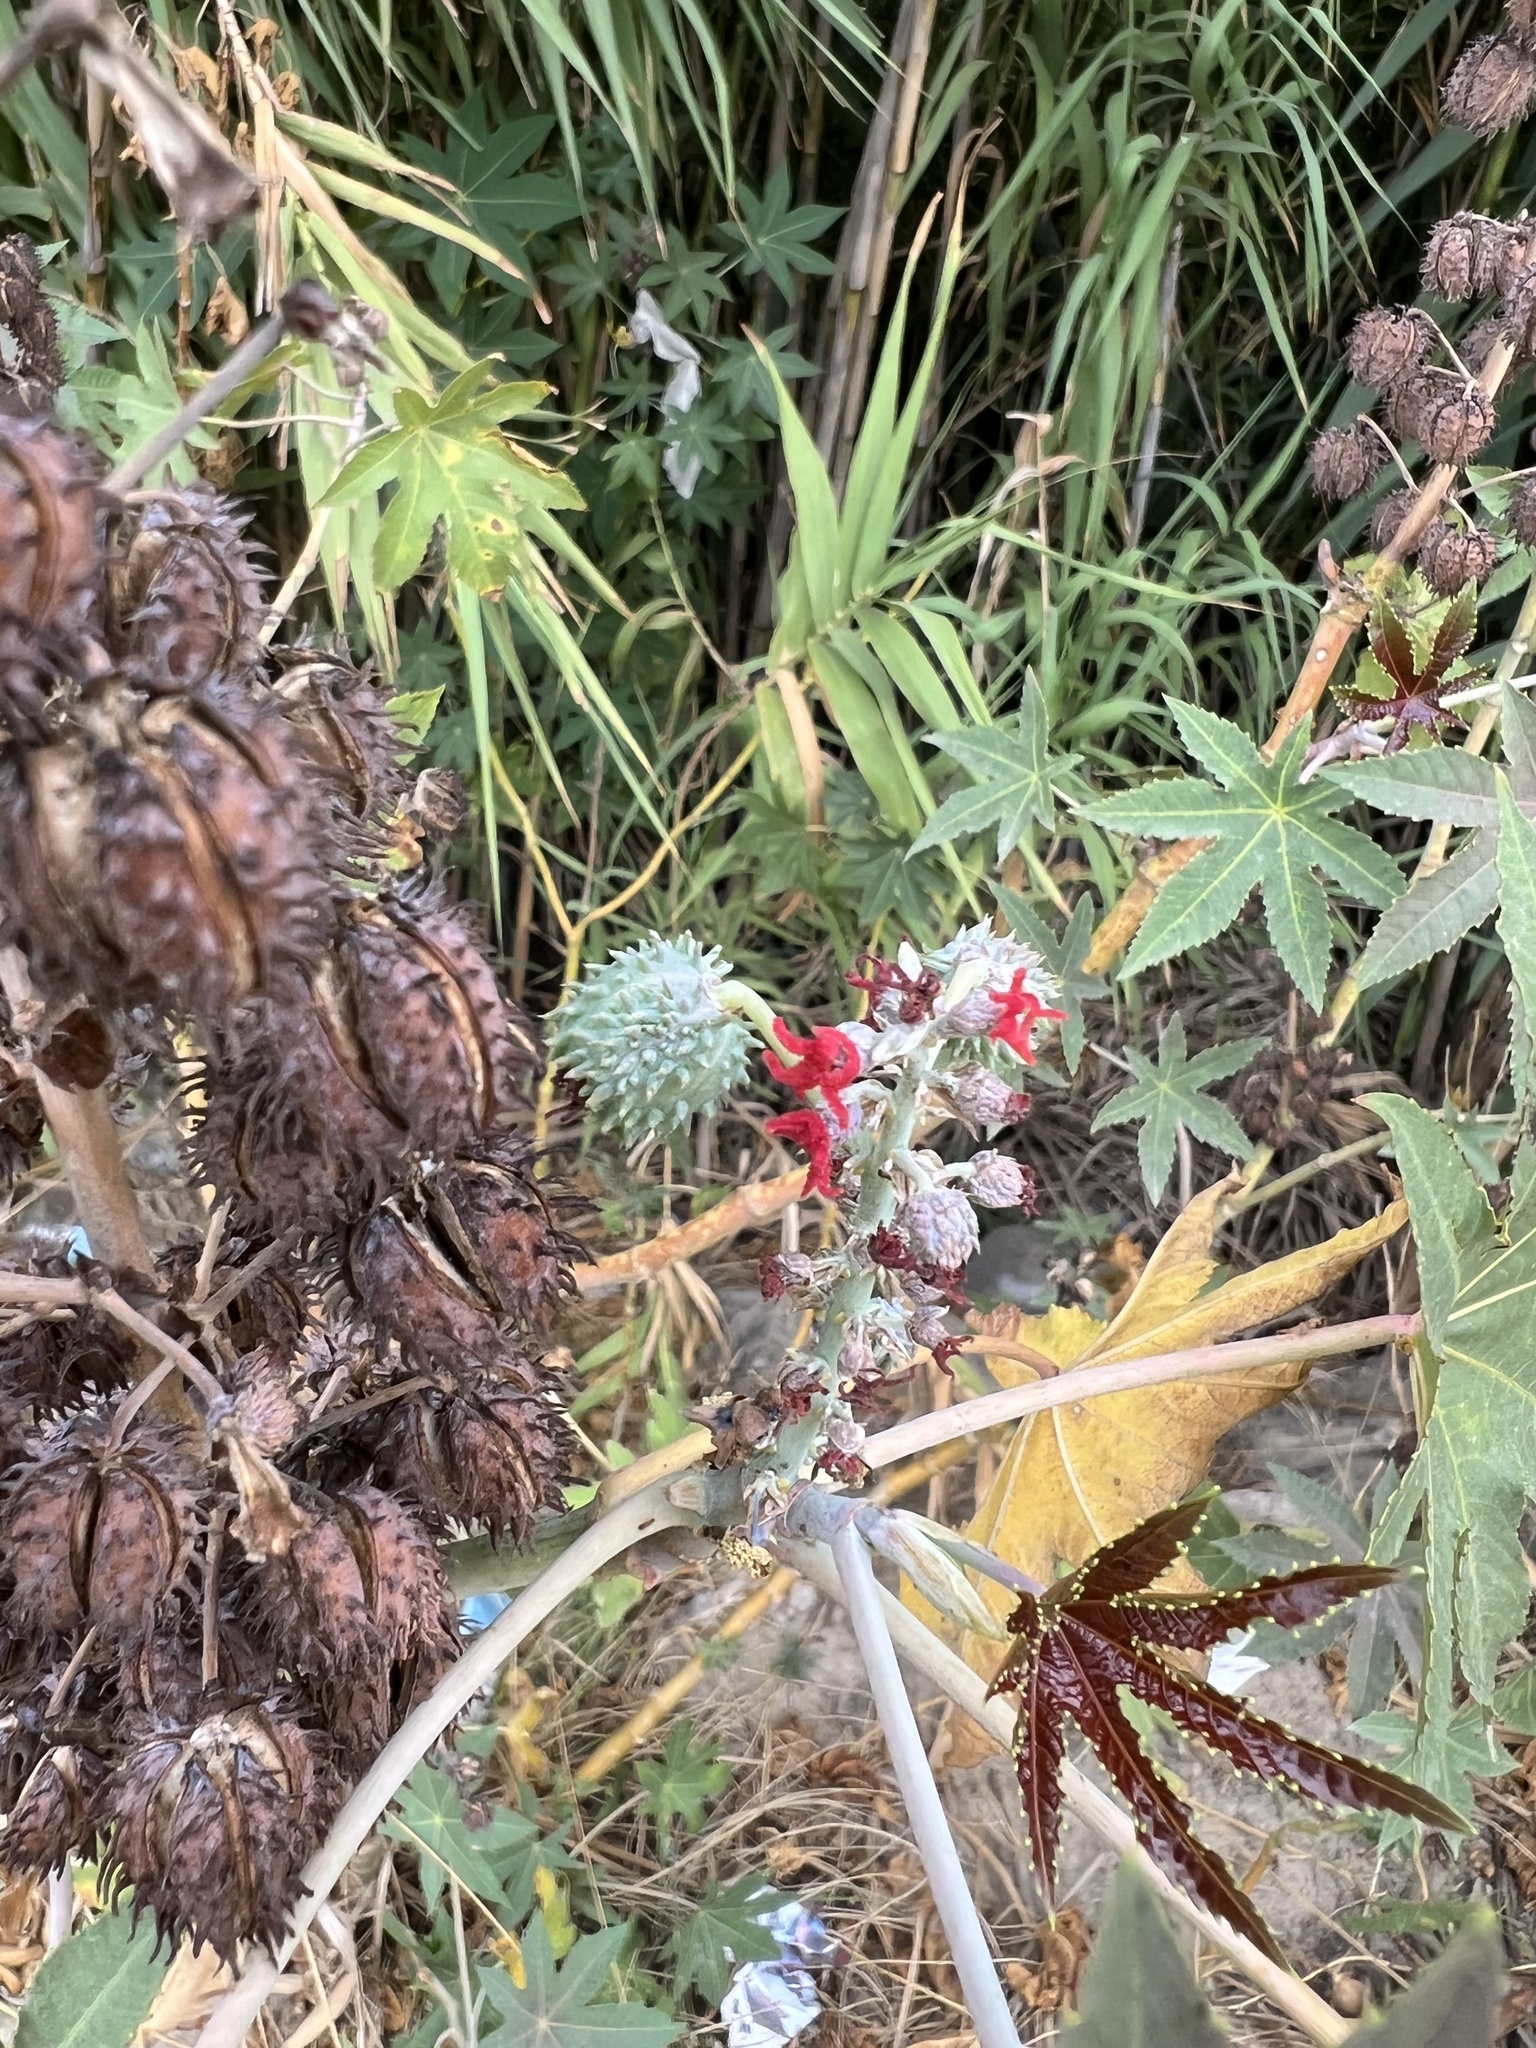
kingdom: Plantae
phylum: Tracheophyta
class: Magnoliopsida
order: Malpighiales
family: Euphorbiaceae
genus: Ricinus
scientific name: Ricinus communis
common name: Castor-oil-plant
